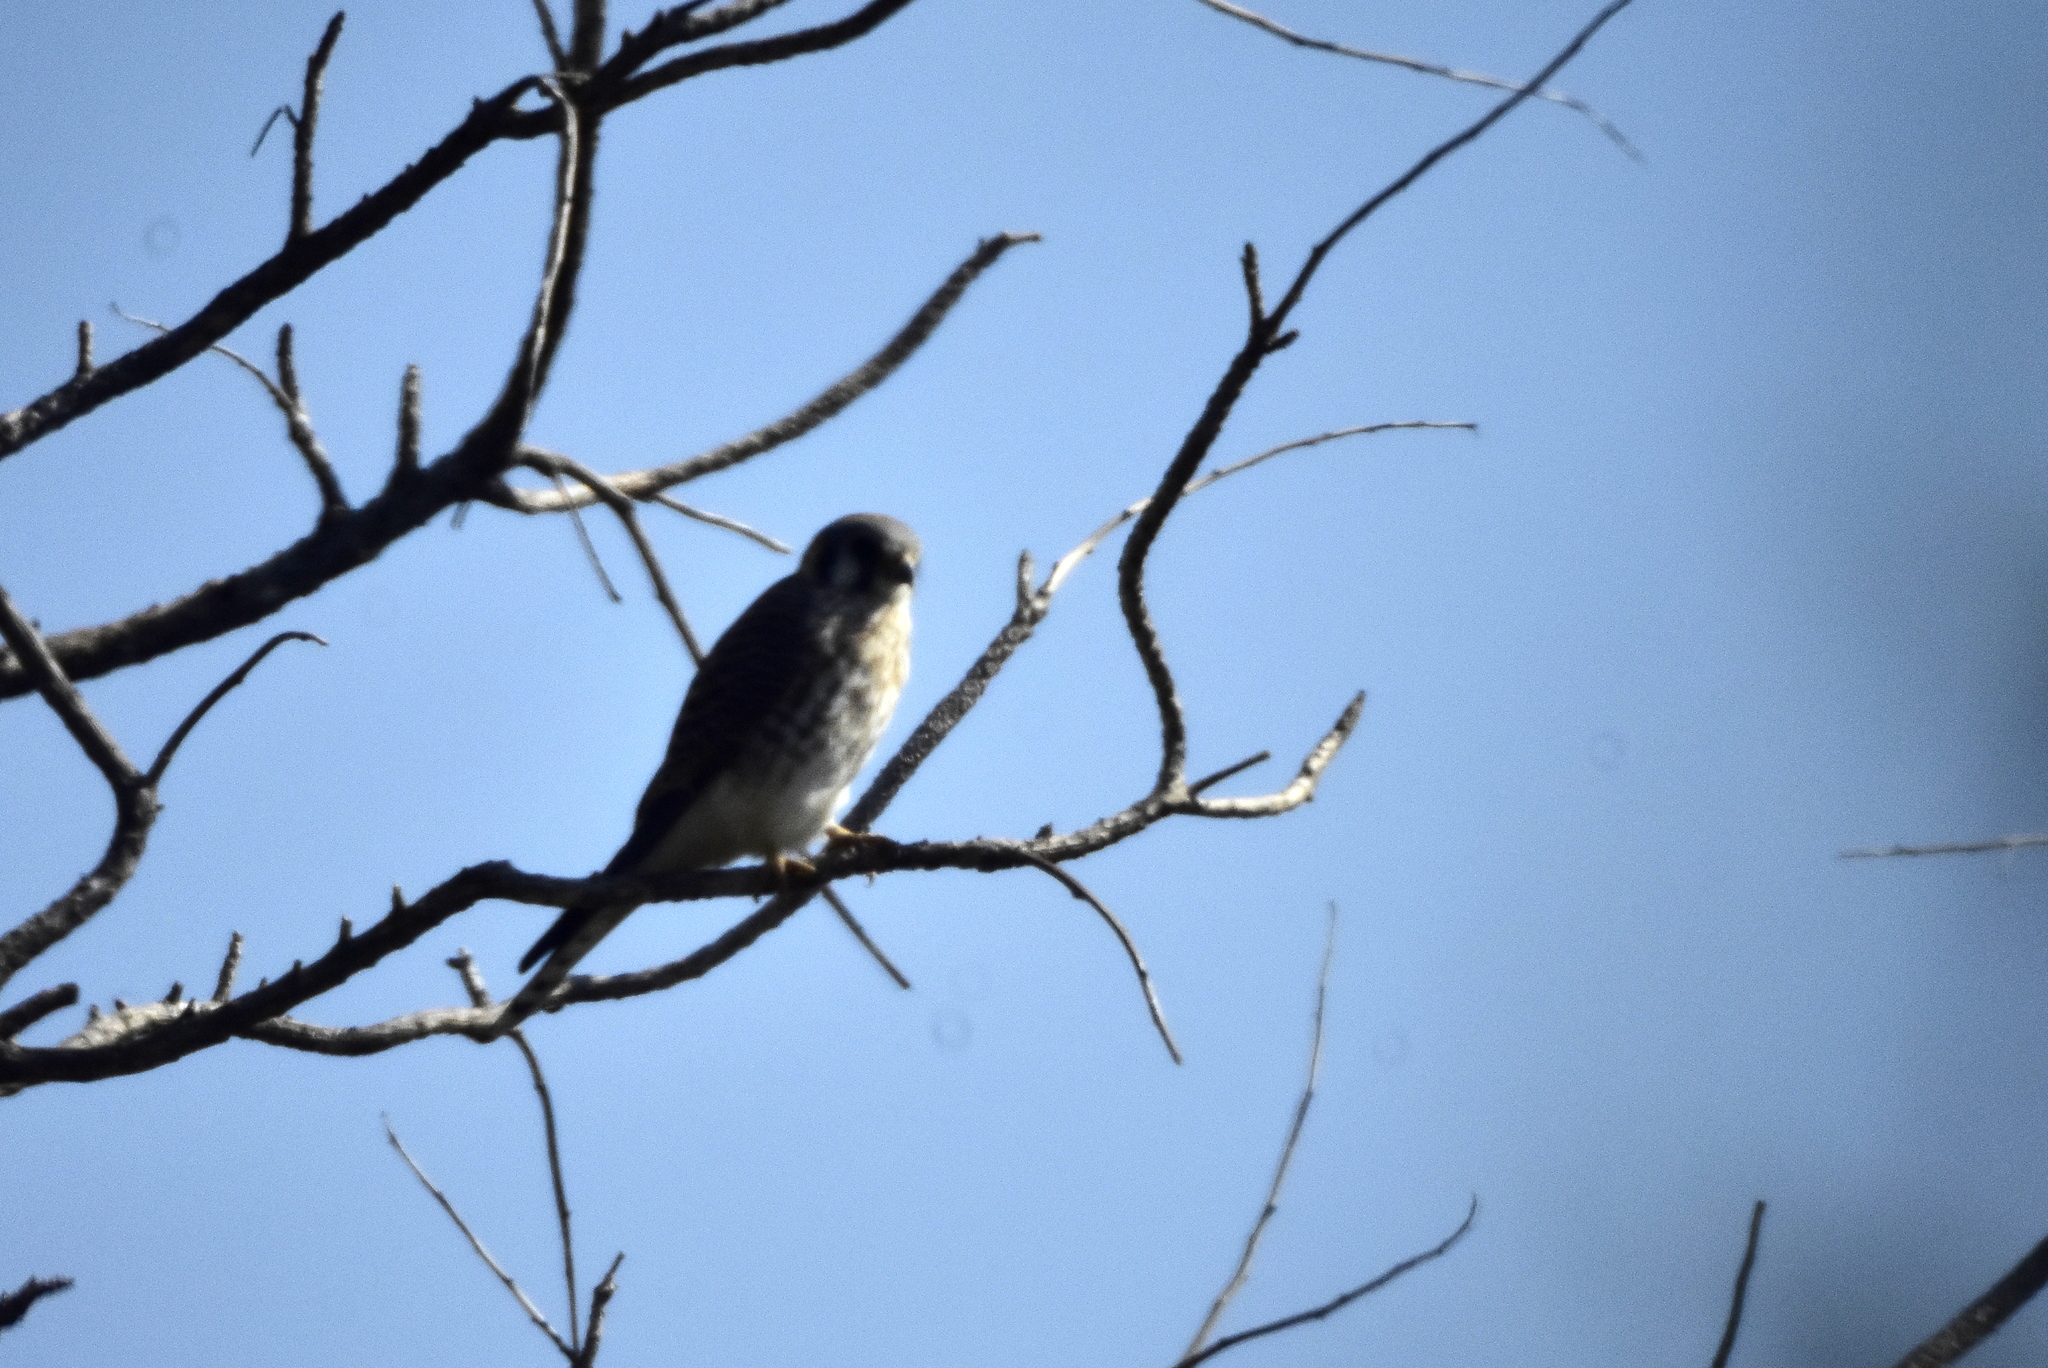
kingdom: Animalia
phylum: Chordata
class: Aves
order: Falconiformes
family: Falconidae
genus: Falco
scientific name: Falco sparverius
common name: American kestrel
